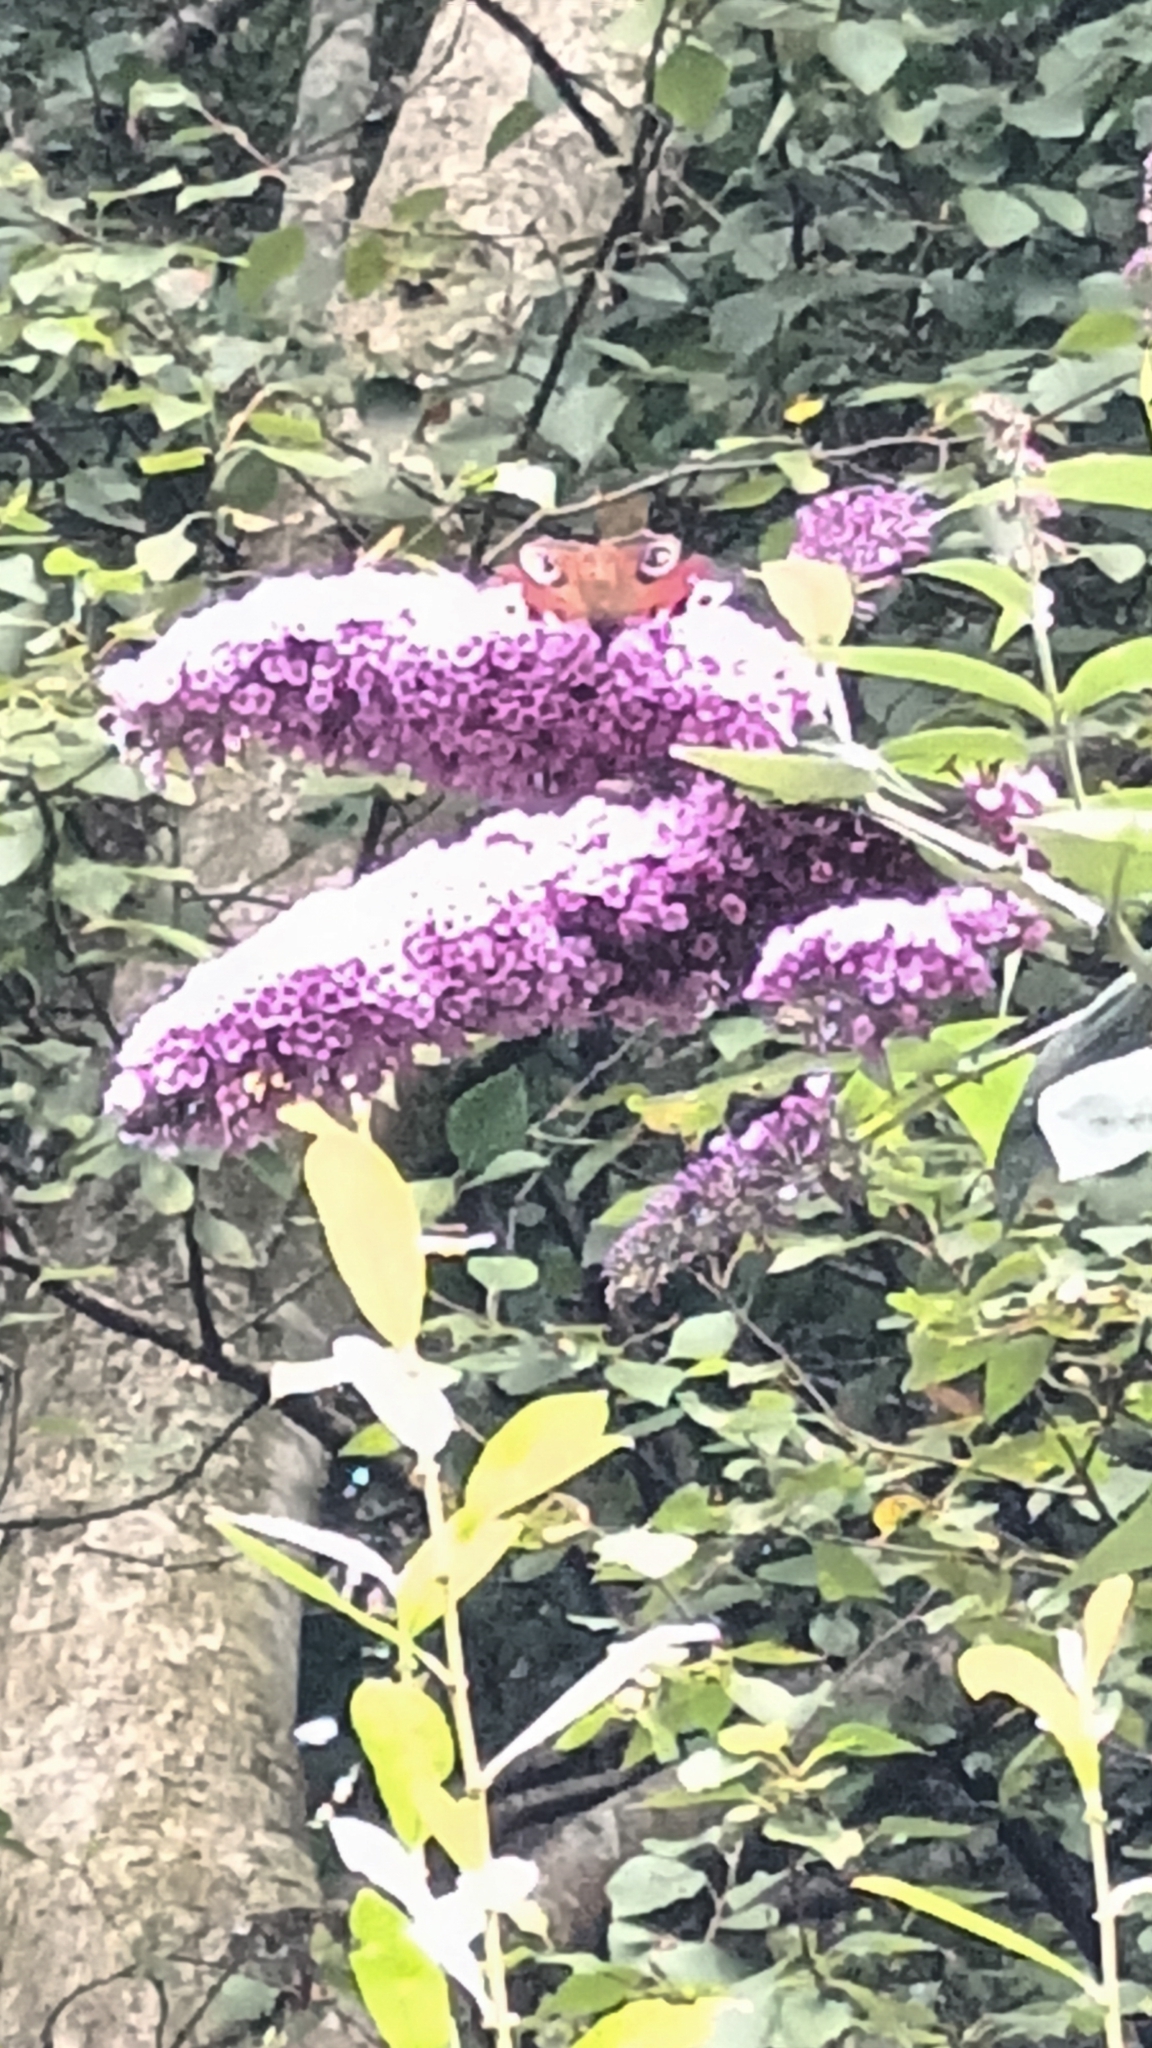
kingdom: Animalia
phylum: Arthropoda
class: Insecta
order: Lepidoptera
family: Nymphalidae
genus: Aglais
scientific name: Aglais io
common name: Peacock
